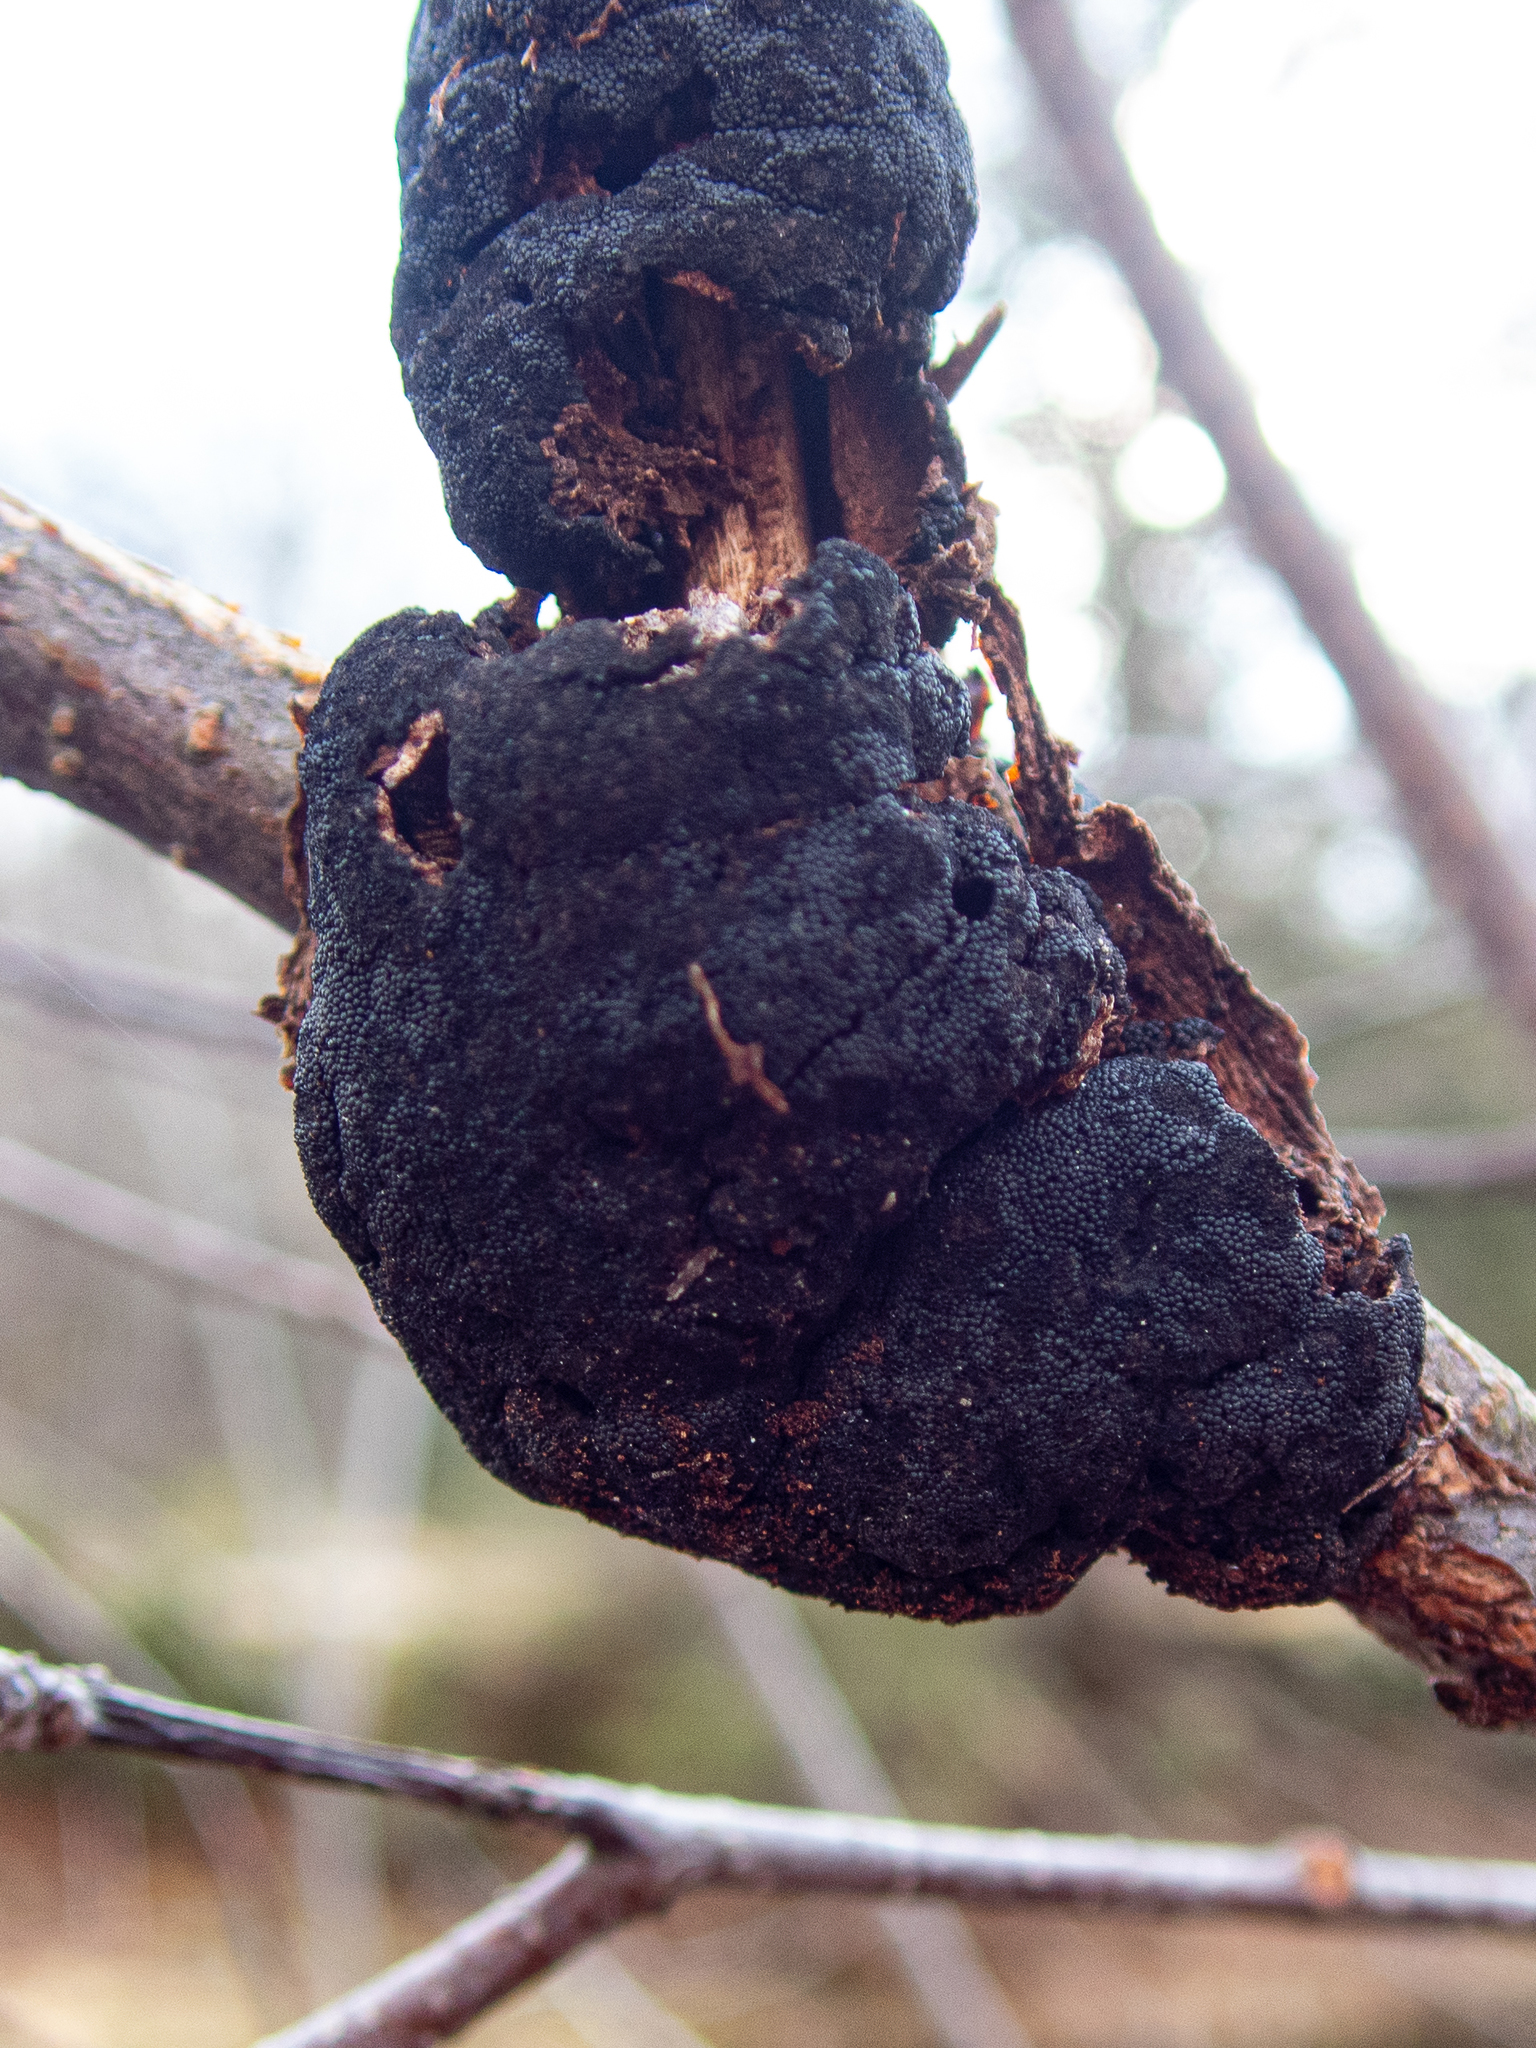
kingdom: Fungi
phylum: Ascomycota
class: Dothideomycetes
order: Venturiales
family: Venturiaceae
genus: Apiosporina
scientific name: Apiosporina morbosa
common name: Black knot
